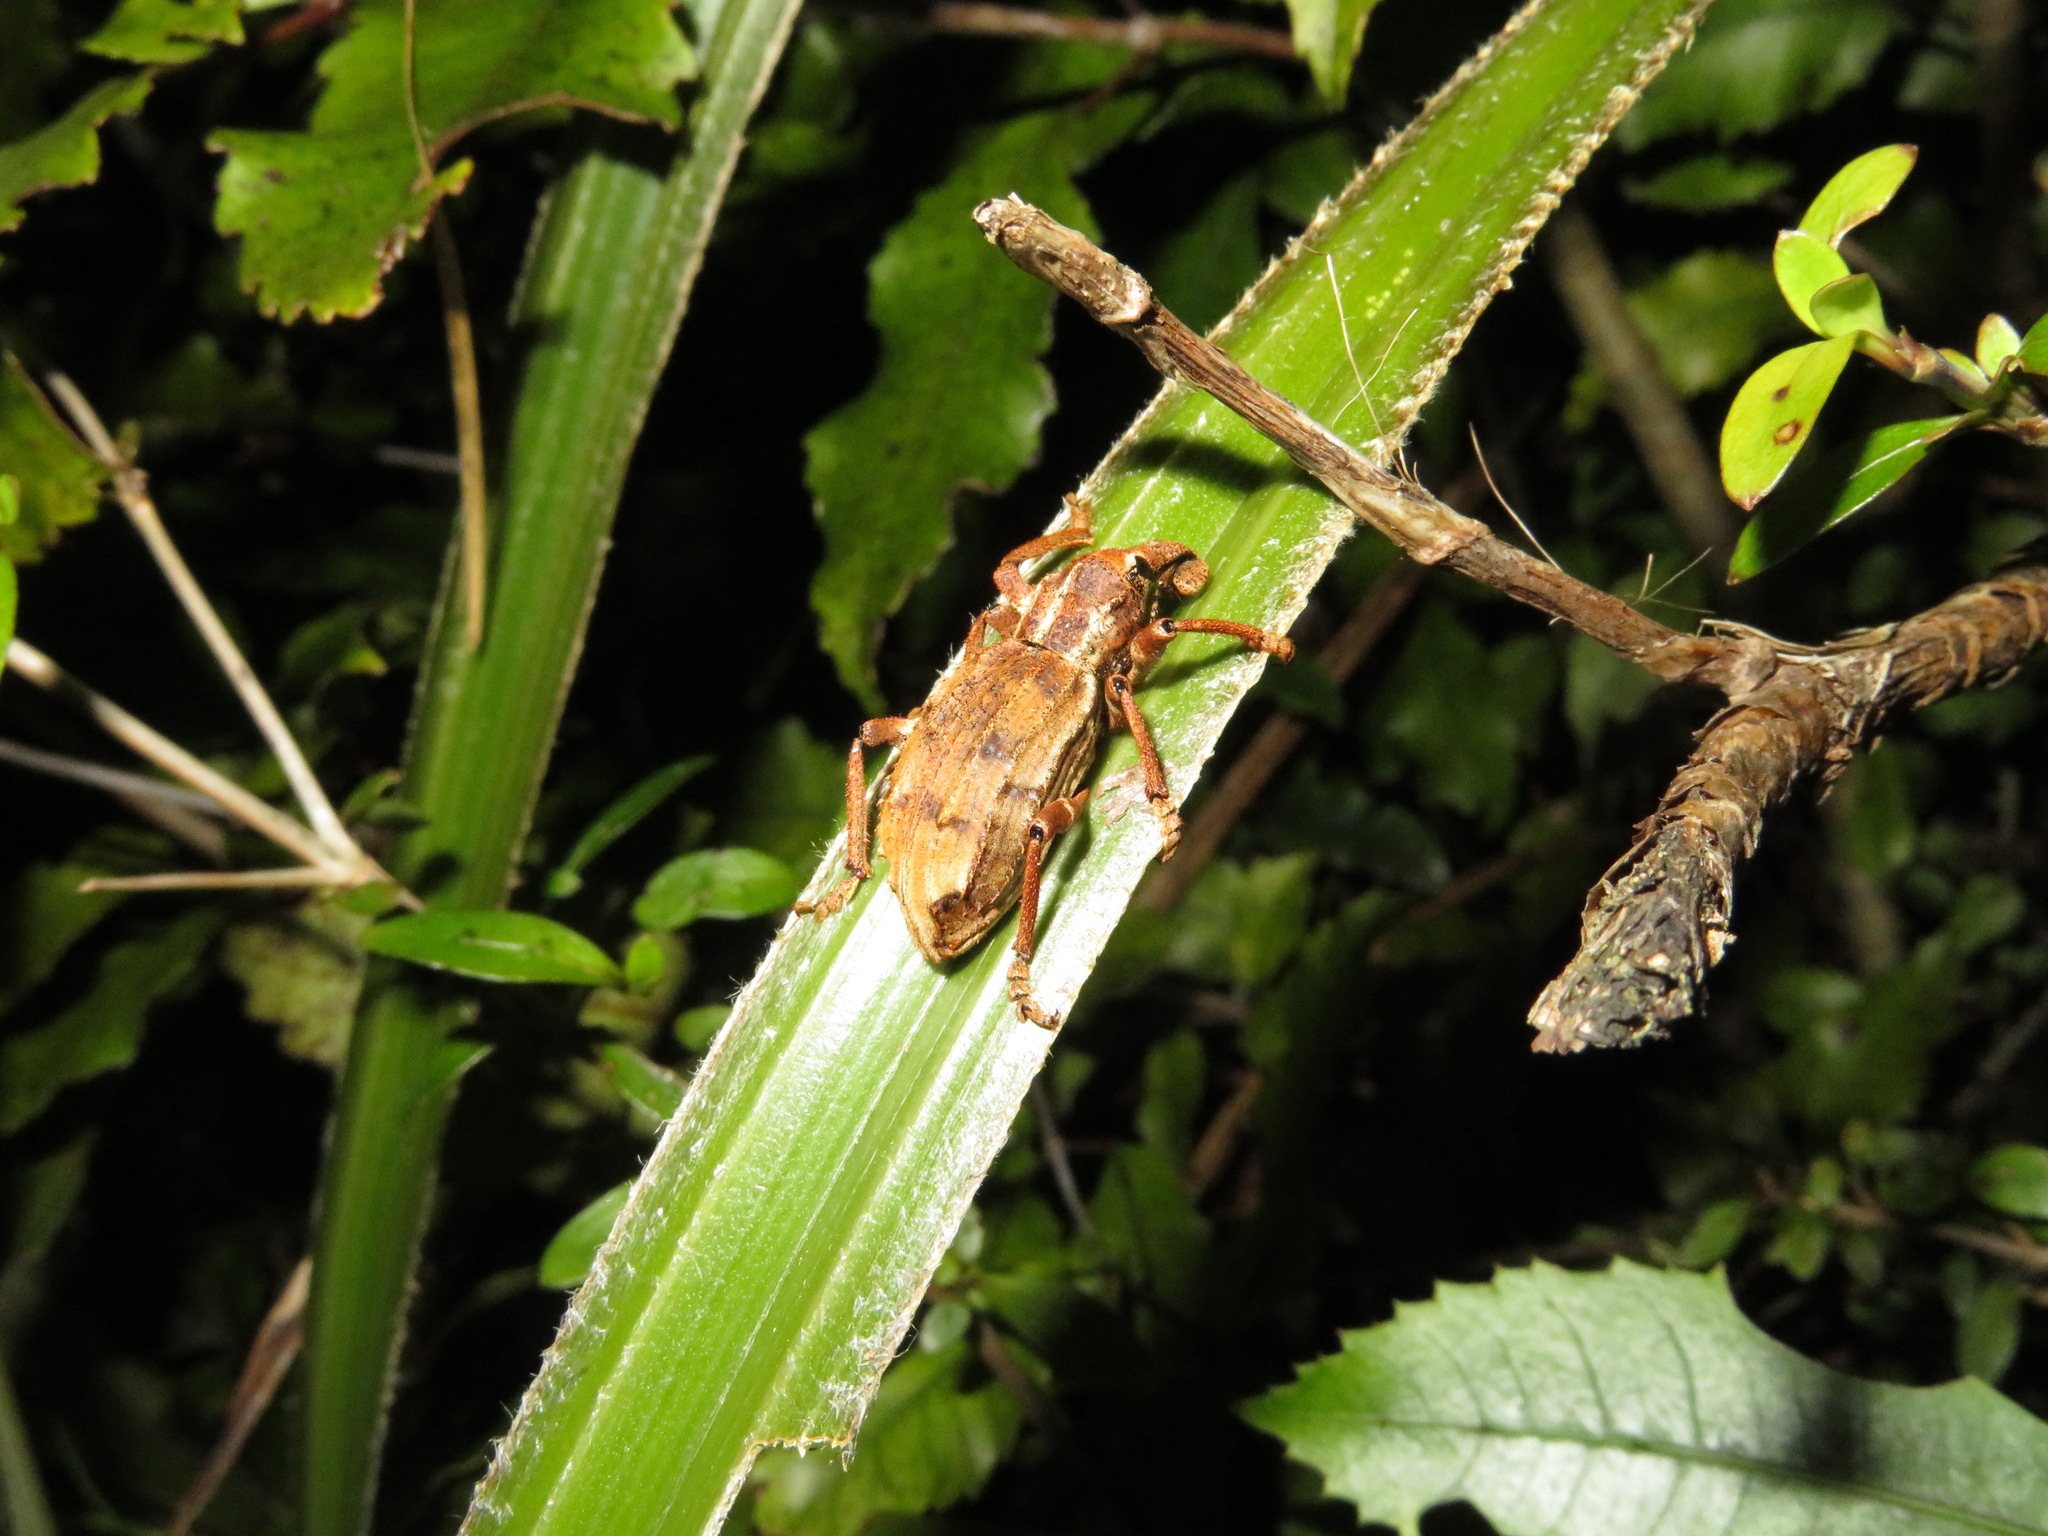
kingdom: Animalia
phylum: Arthropoda
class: Insecta
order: Coleoptera
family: Curculionidae
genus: Anagotus
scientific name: Anagotus
